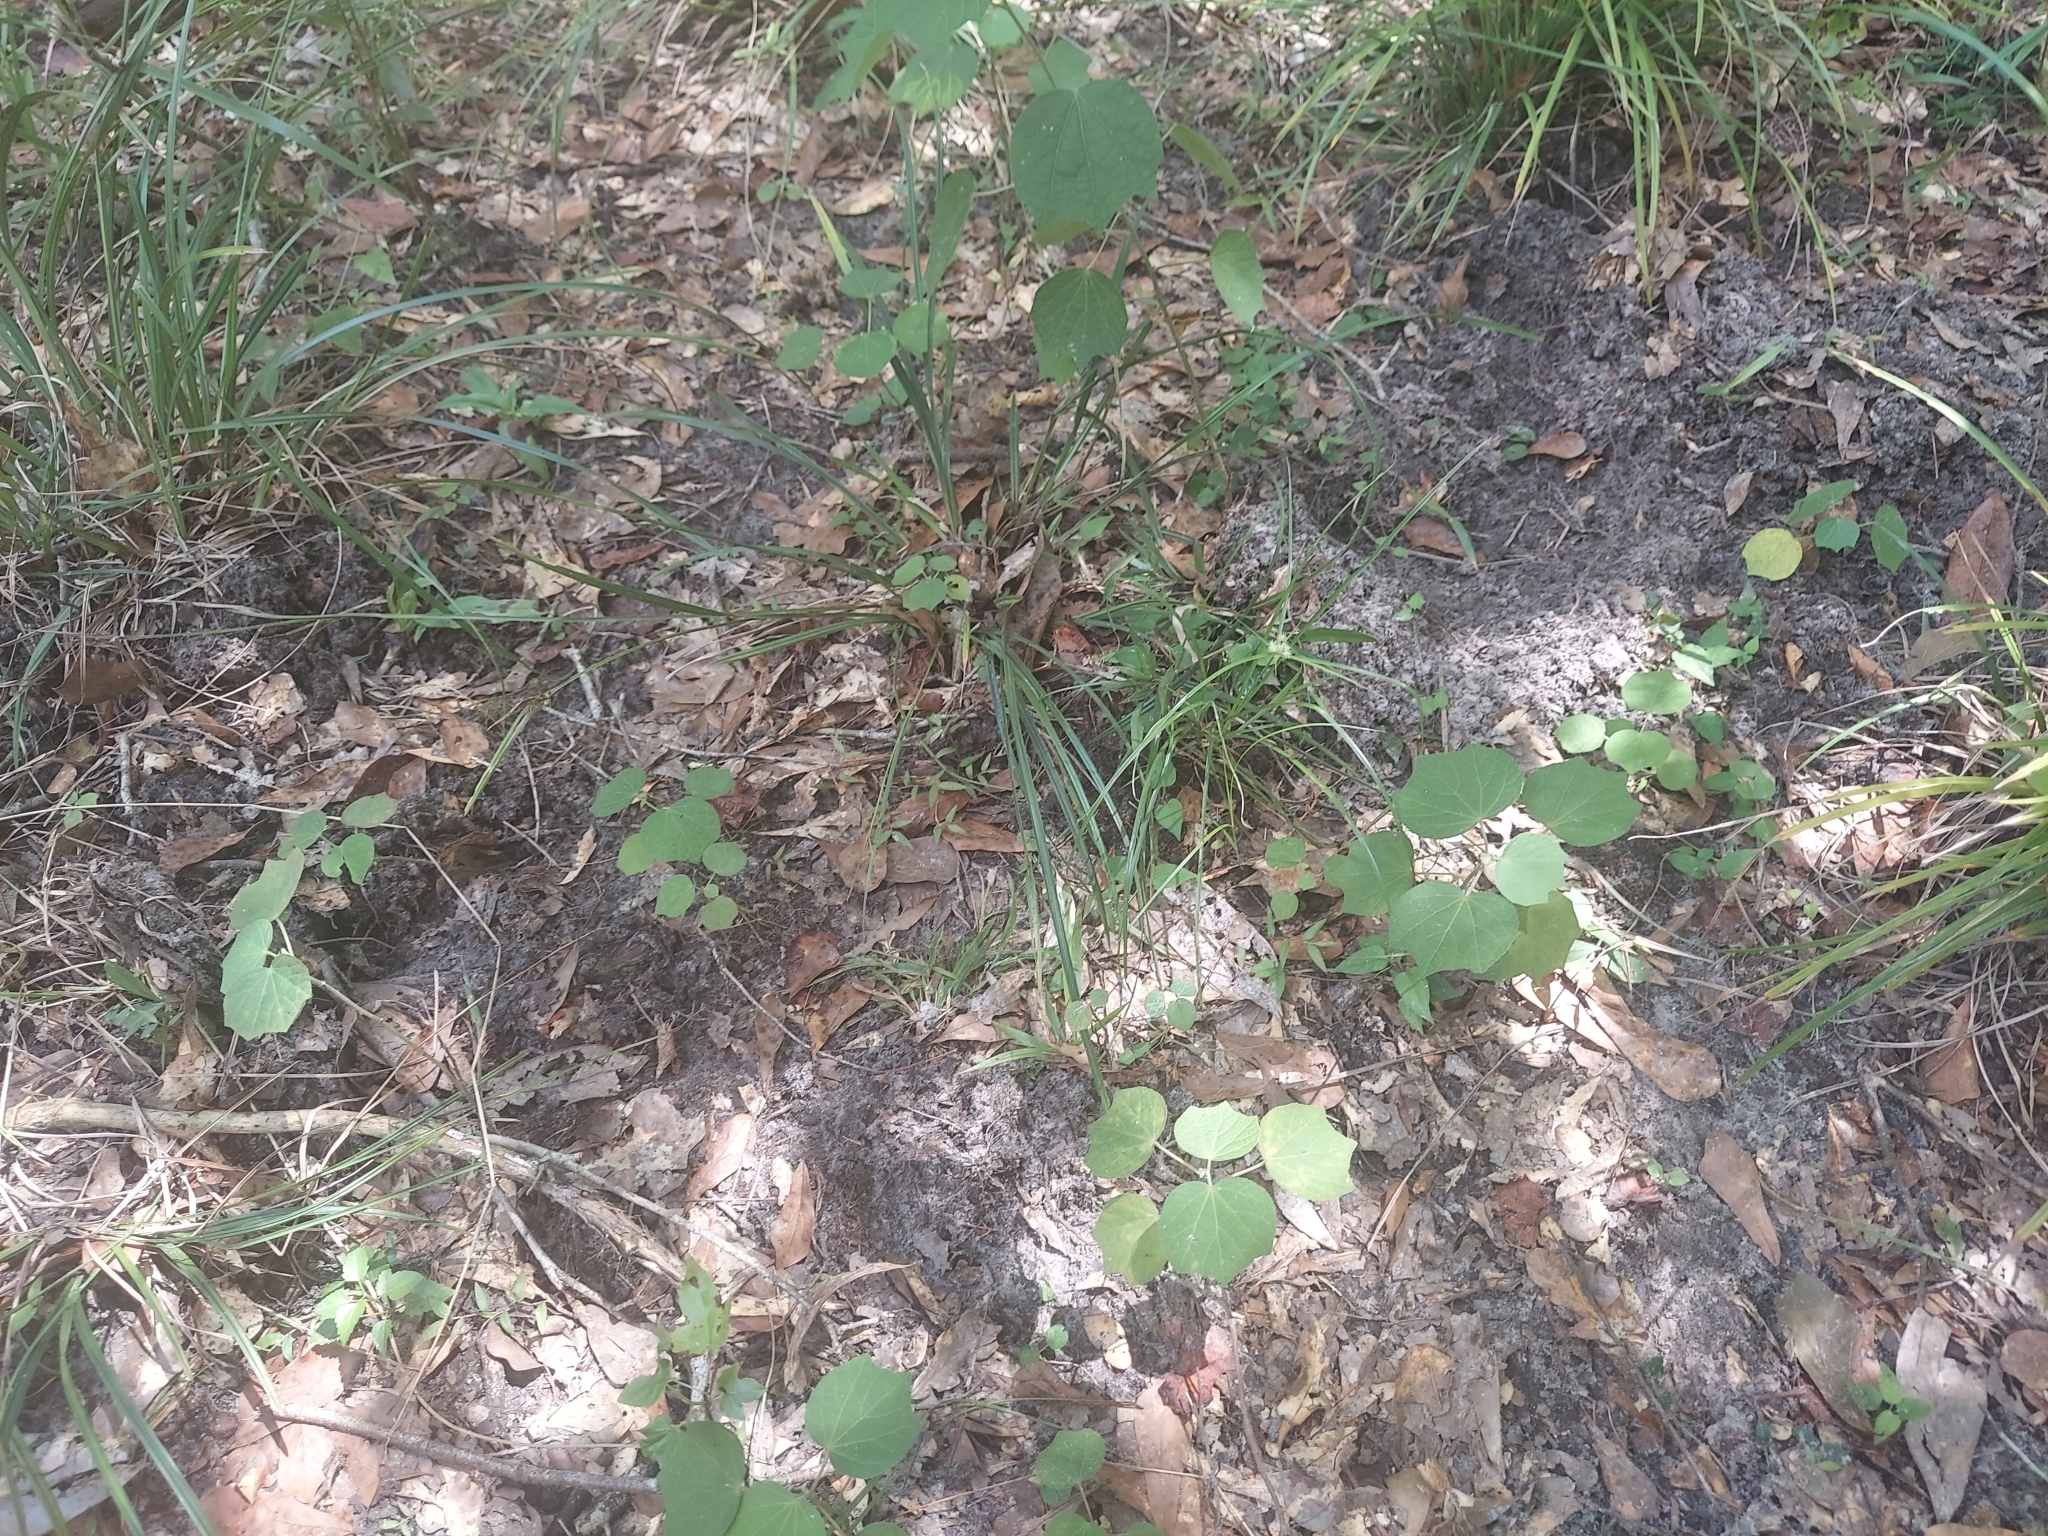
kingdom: Plantae
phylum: Tracheophyta
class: Magnoliopsida
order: Malvales
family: Malvaceae
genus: Urena
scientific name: Urena lobata
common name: Caesarweed
